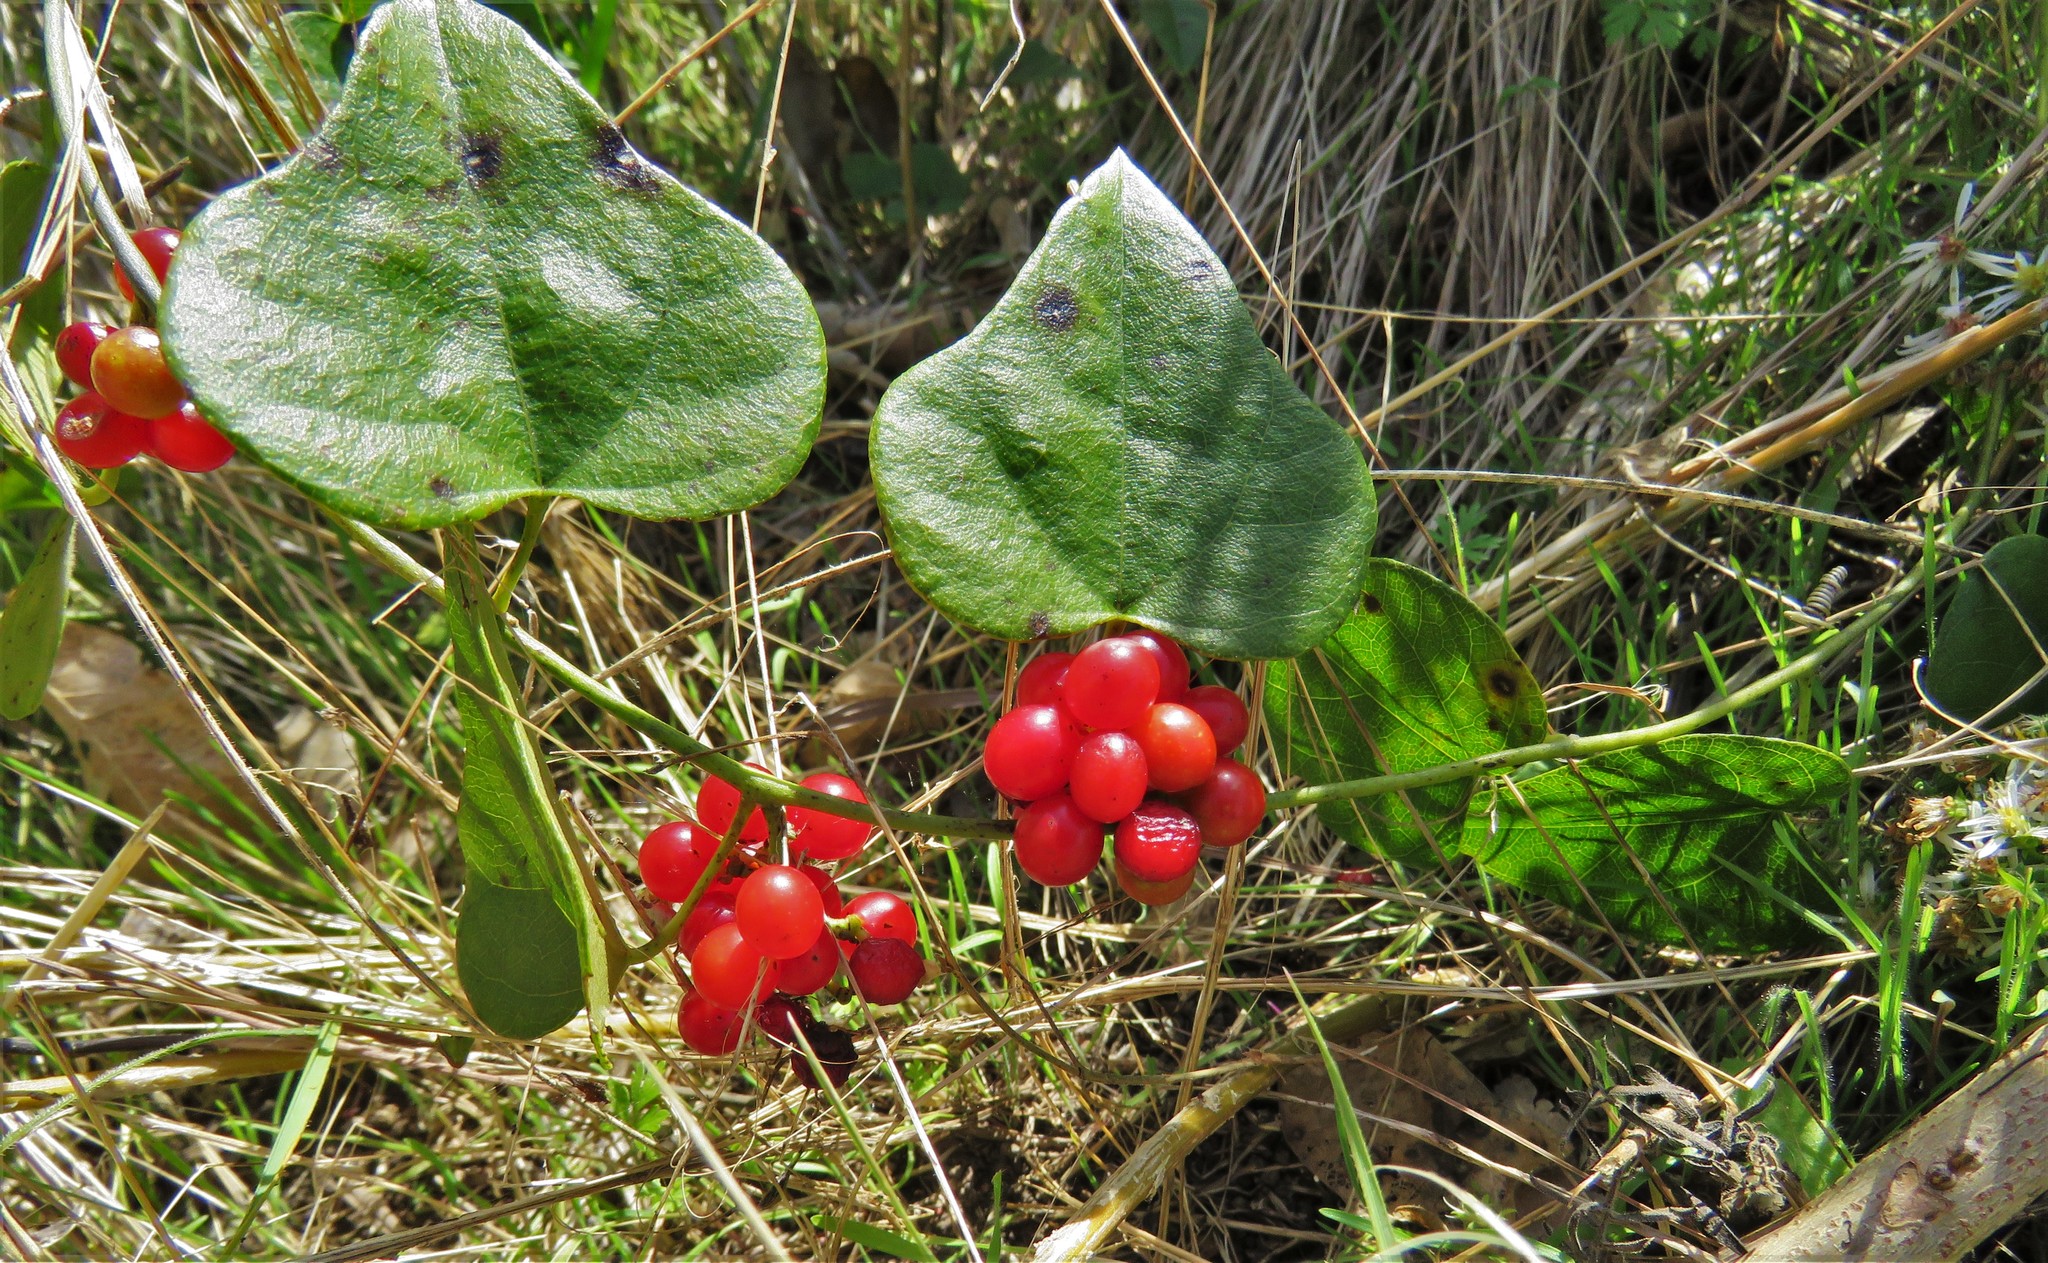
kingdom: Plantae
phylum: Tracheophyta
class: Magnoliopsida
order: Ranunculales
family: Menispermaceae
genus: Cocculus
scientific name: Cocculus carolinus
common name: Carolina moonseed
